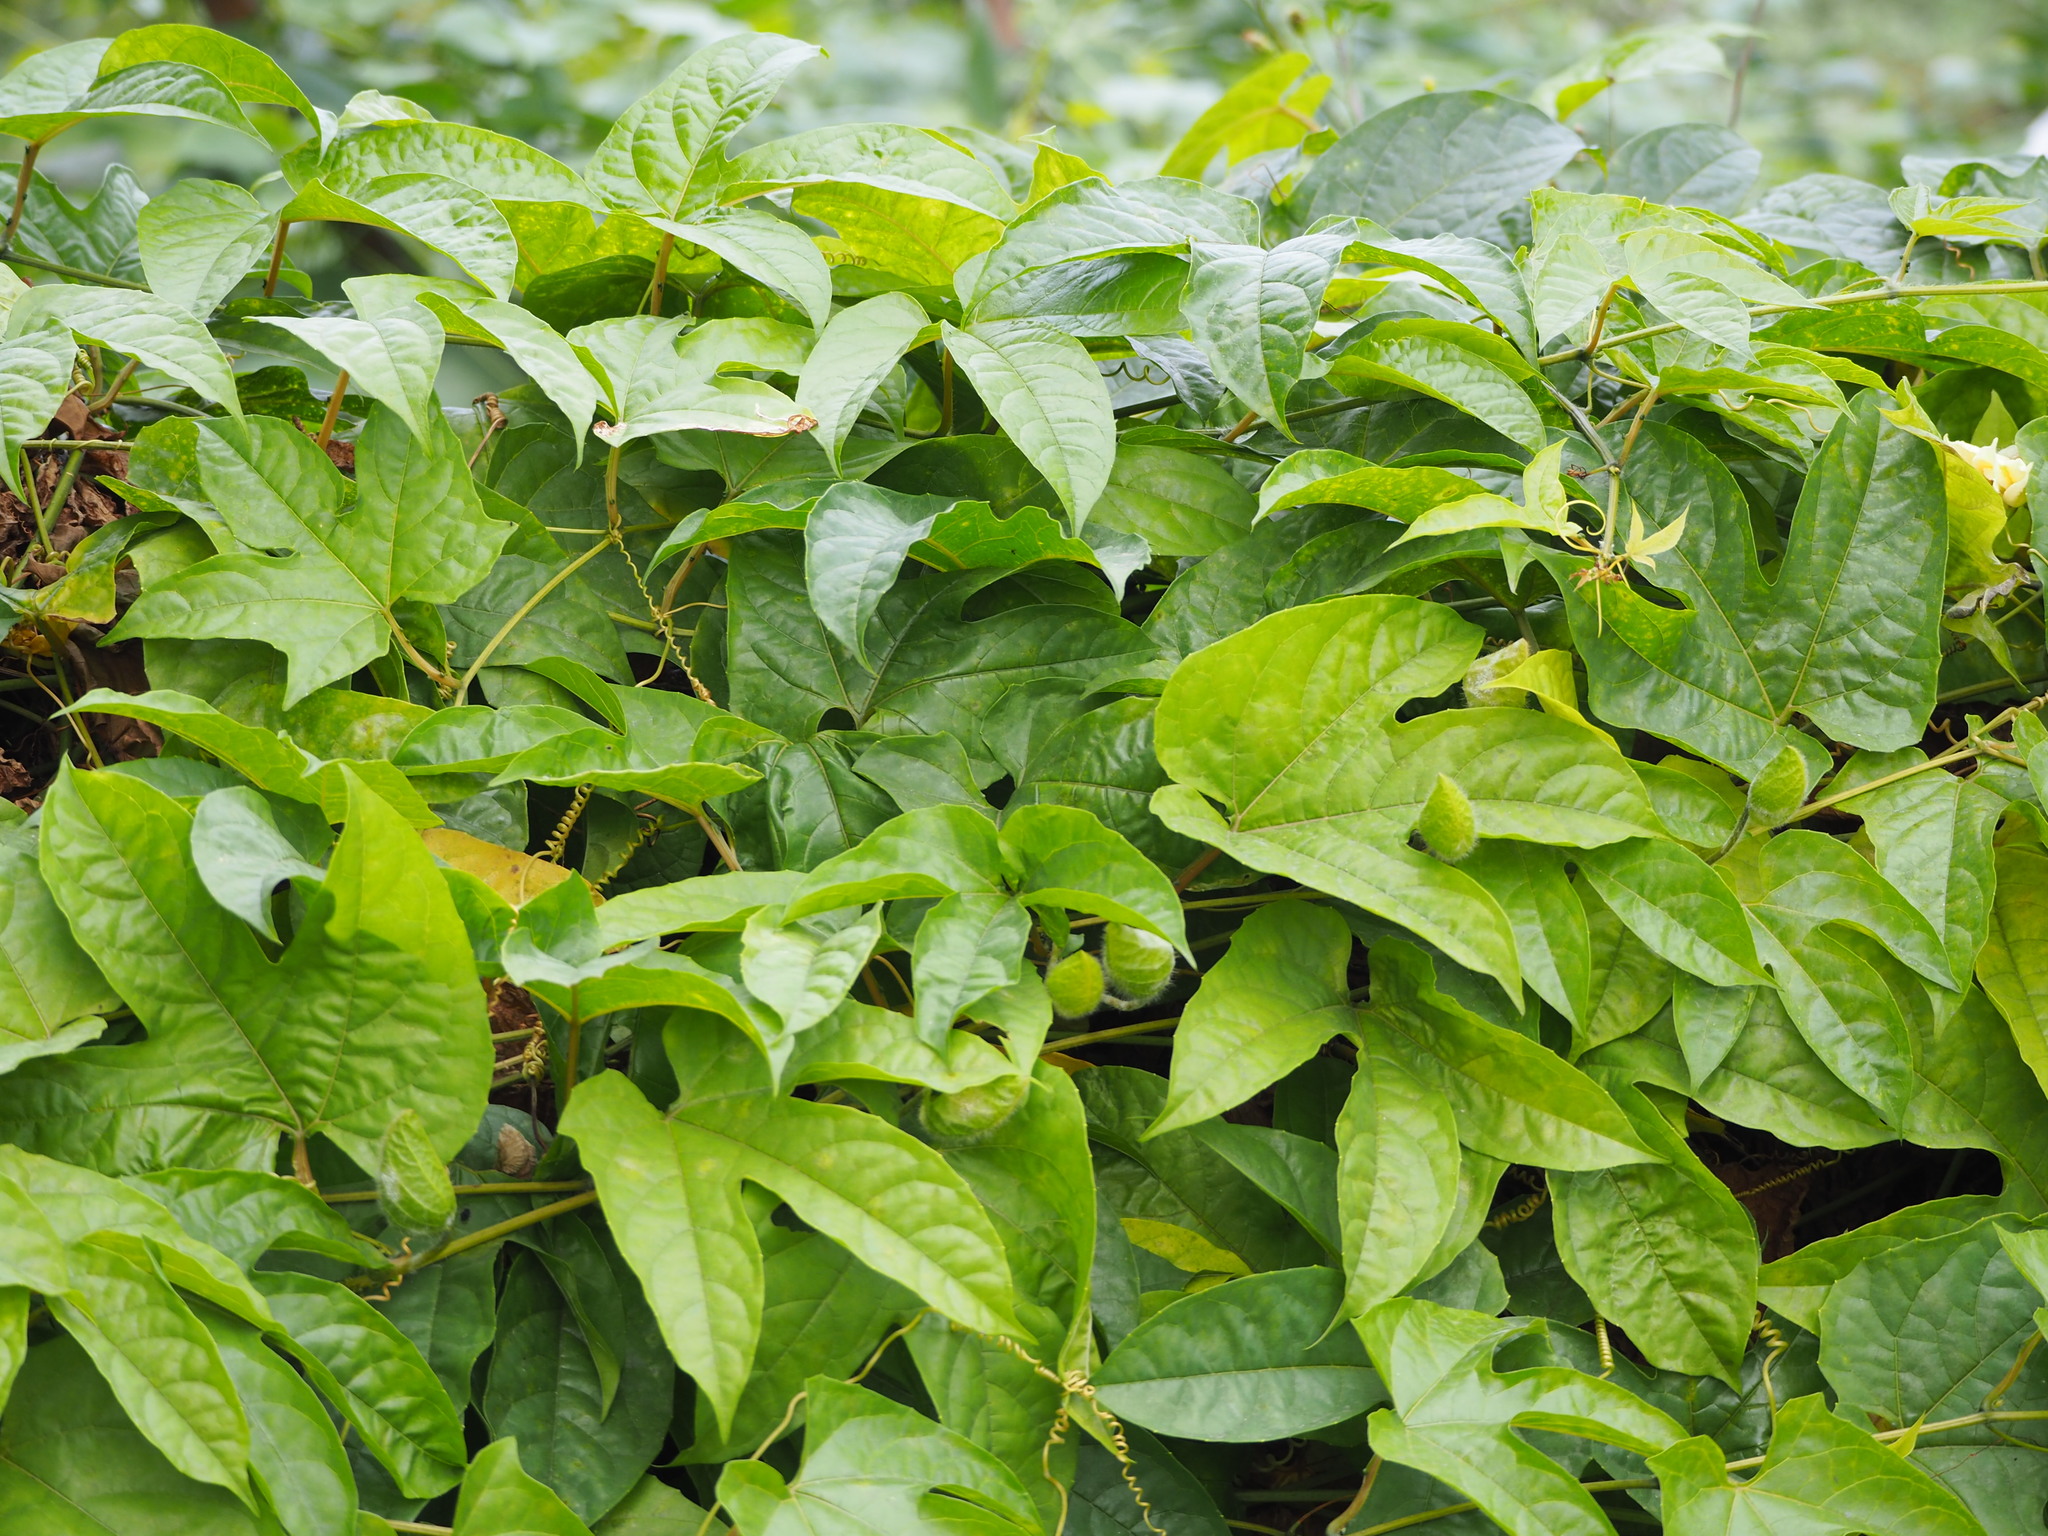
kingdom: Plantae
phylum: Tracheophyta
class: Magnoliopsida
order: Cucurbitales
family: Cucurbitaceae
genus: Momordica
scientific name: Momordica cochinchinensis
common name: Chinese bitter-cucumber
